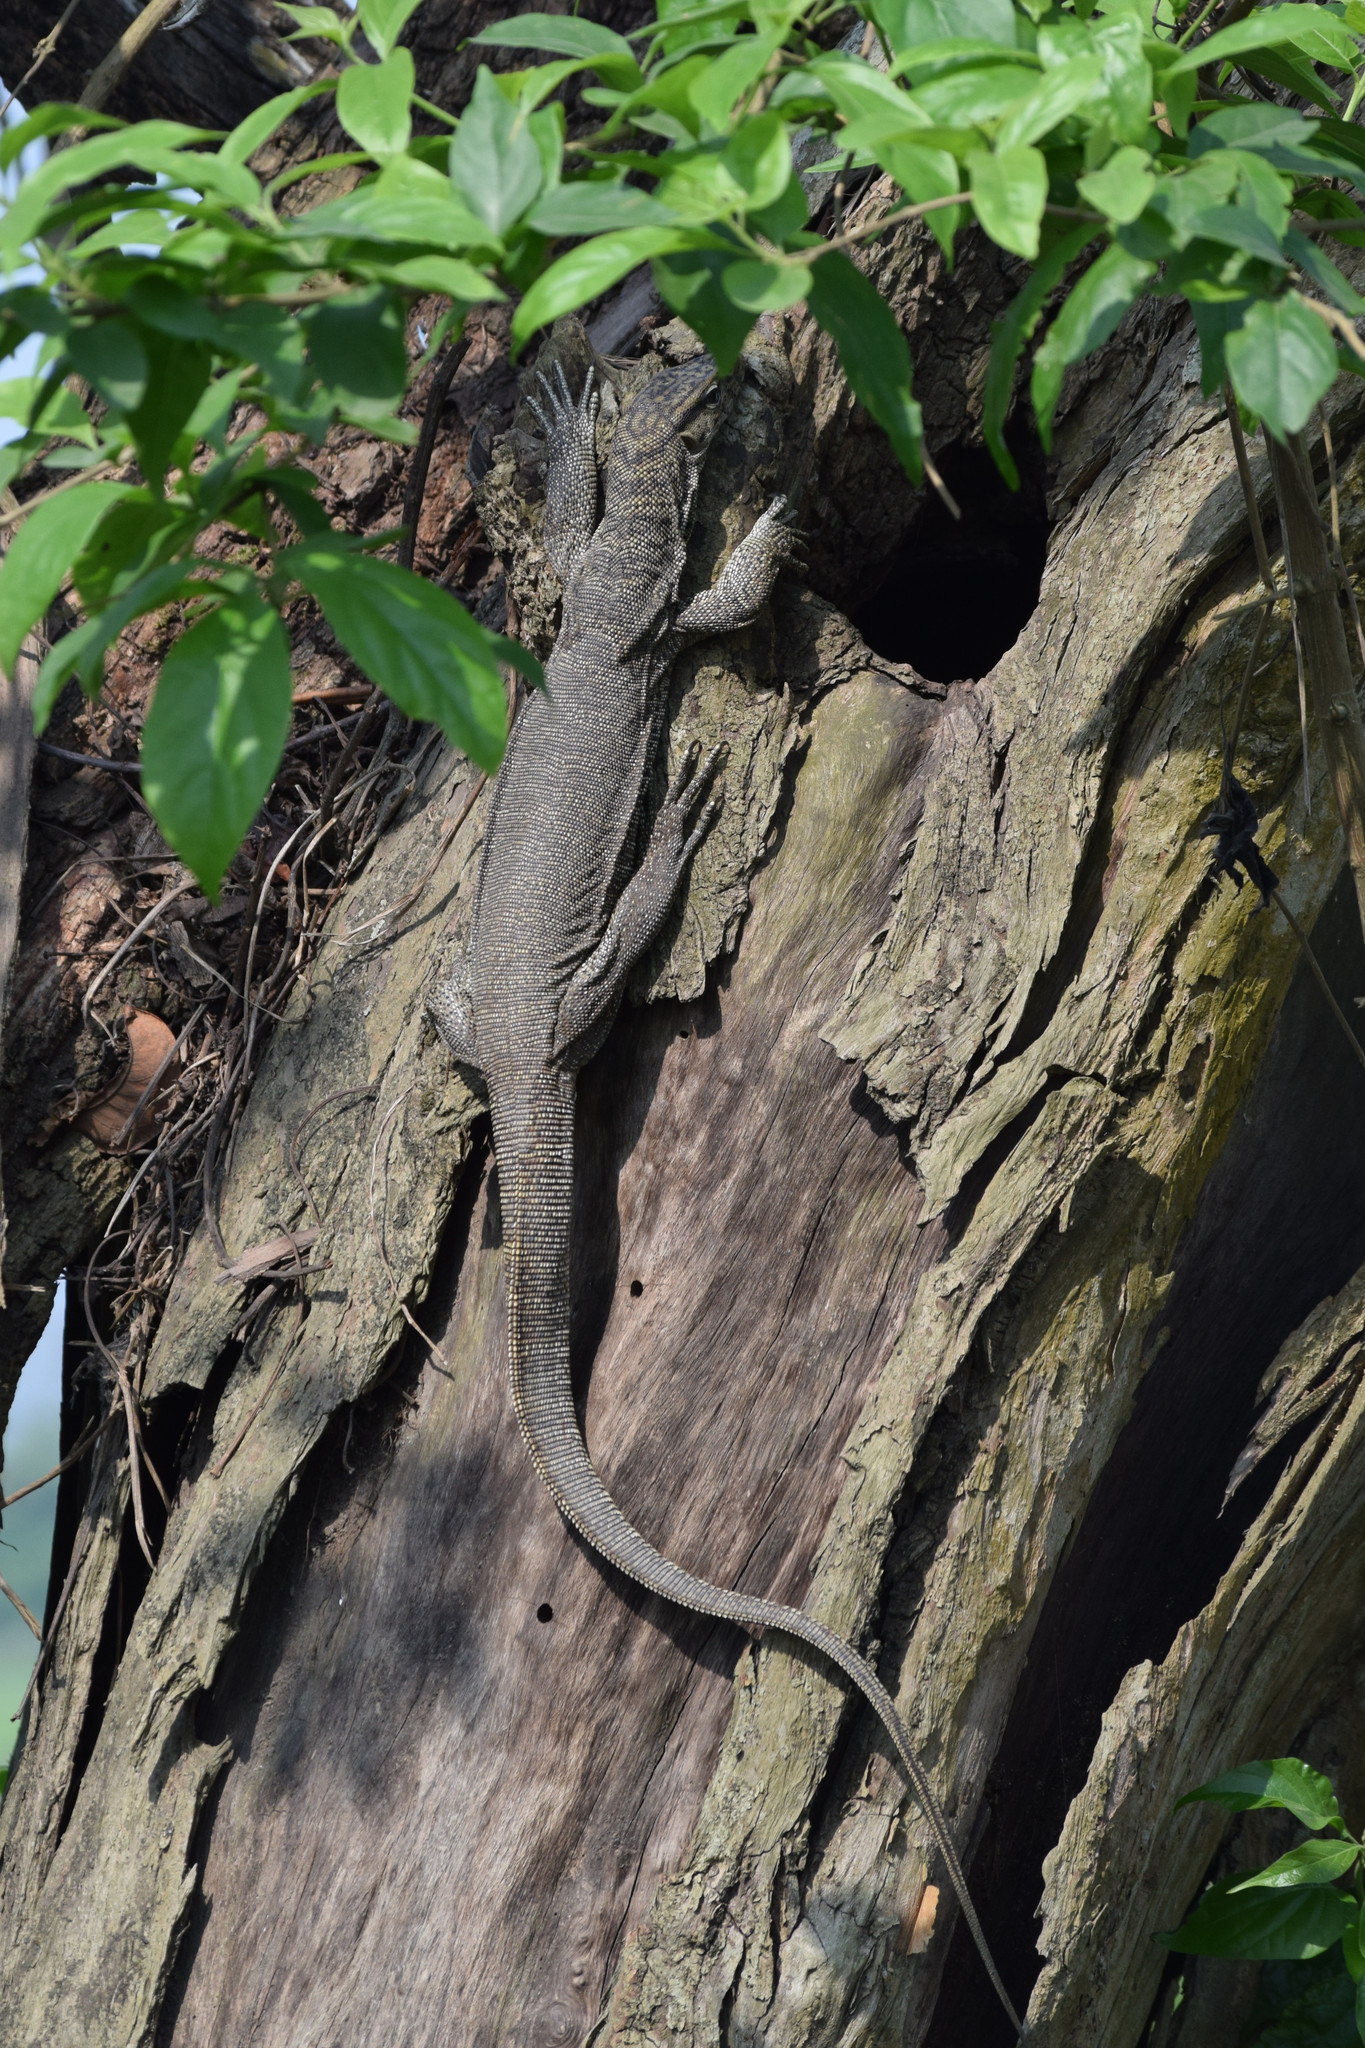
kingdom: Animalia
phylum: Chordata
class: Squamata
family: Varanidae
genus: Varanus
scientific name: Varanus bengalensis
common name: Bengal monitor
